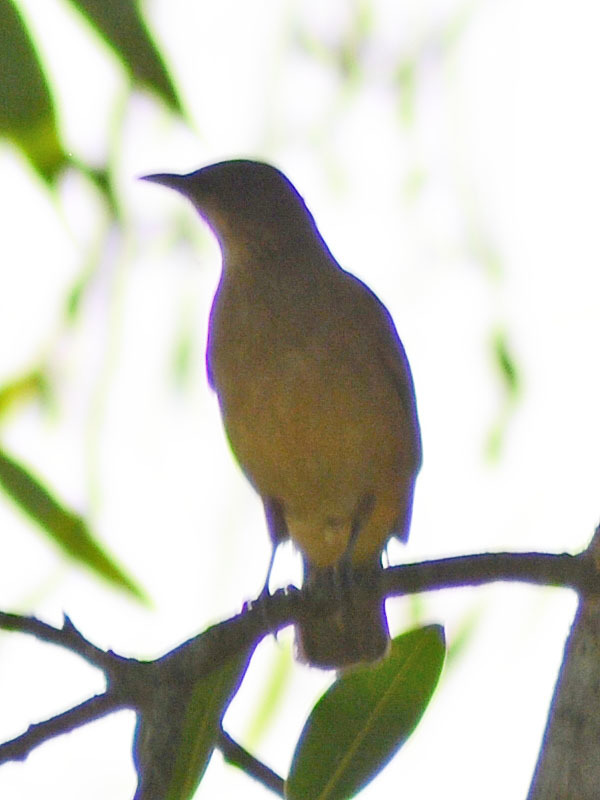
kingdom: Animalia
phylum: Chordata
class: Aves
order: Passeriformes
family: Turdidae
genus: Turdus
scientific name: Turdus grayi
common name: Clay-colored thrush
